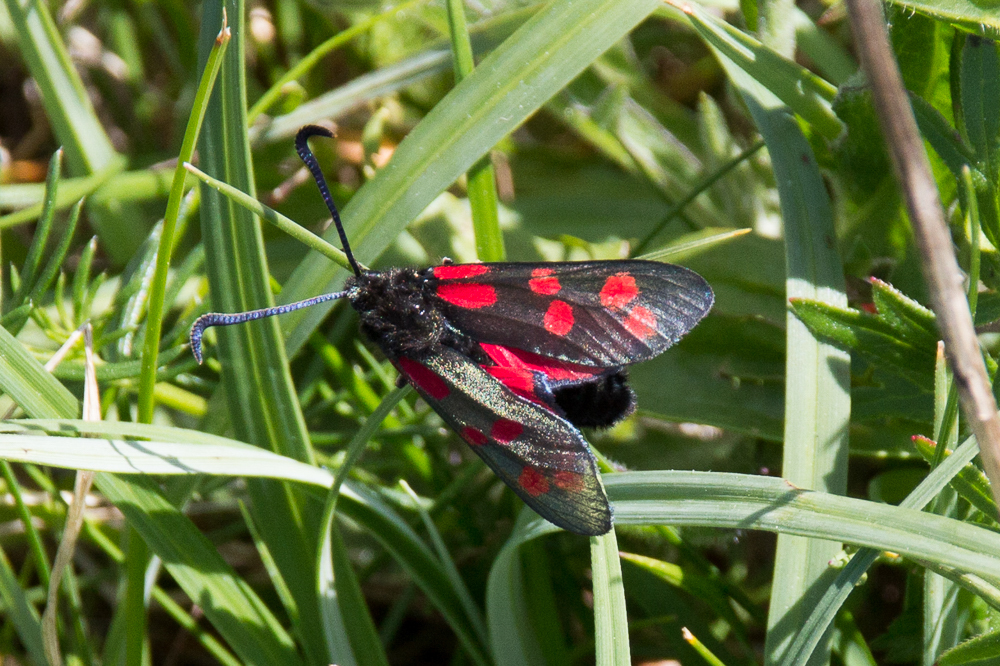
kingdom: Animalia
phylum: Arthropoda
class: Insecta
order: Lepidoptera
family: Zygaenidae
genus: Zygaena
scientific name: Zygaena filipendulae
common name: Six-spot burnet
